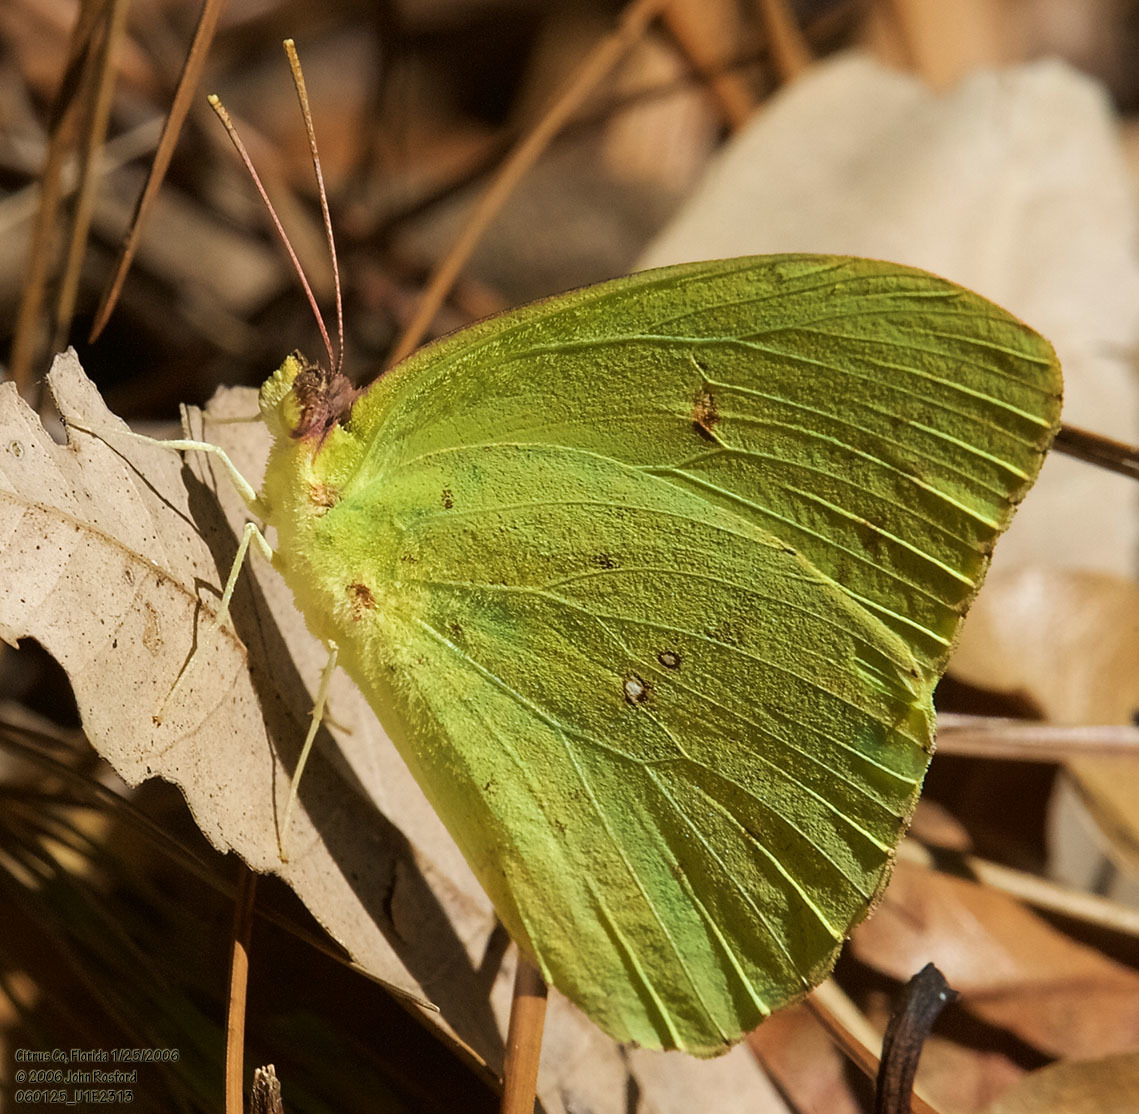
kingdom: Animalia
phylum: Arthropoda
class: Insecta
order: Lepidoptera
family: Pieridae
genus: Phoebis
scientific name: Phoebis sennae
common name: Cloudless sulphur
